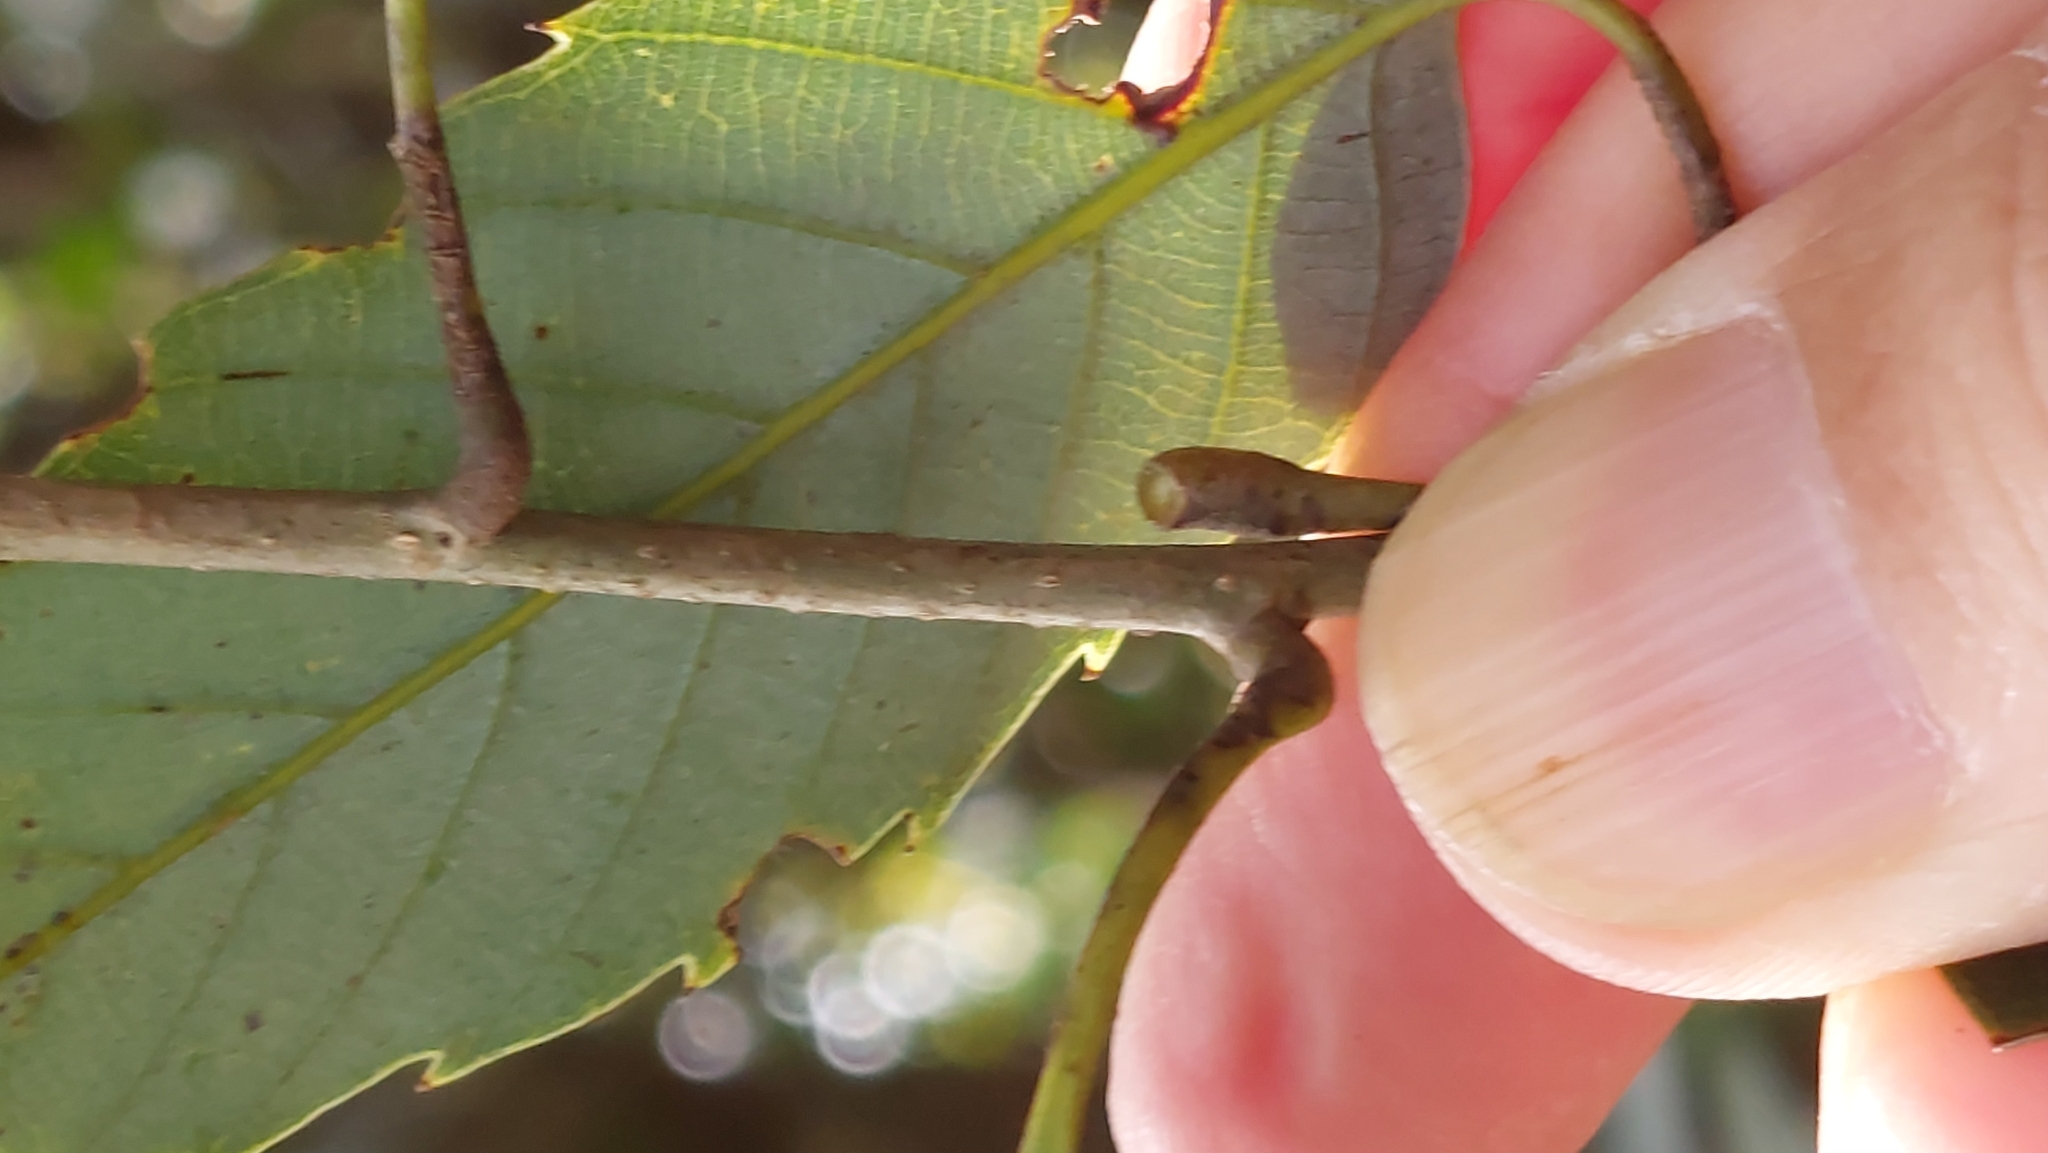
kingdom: Plantae
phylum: Tracheophyta
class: Magnoliopsida
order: Fagales
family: Fagaceae
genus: Quercus
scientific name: Quercus salicina
